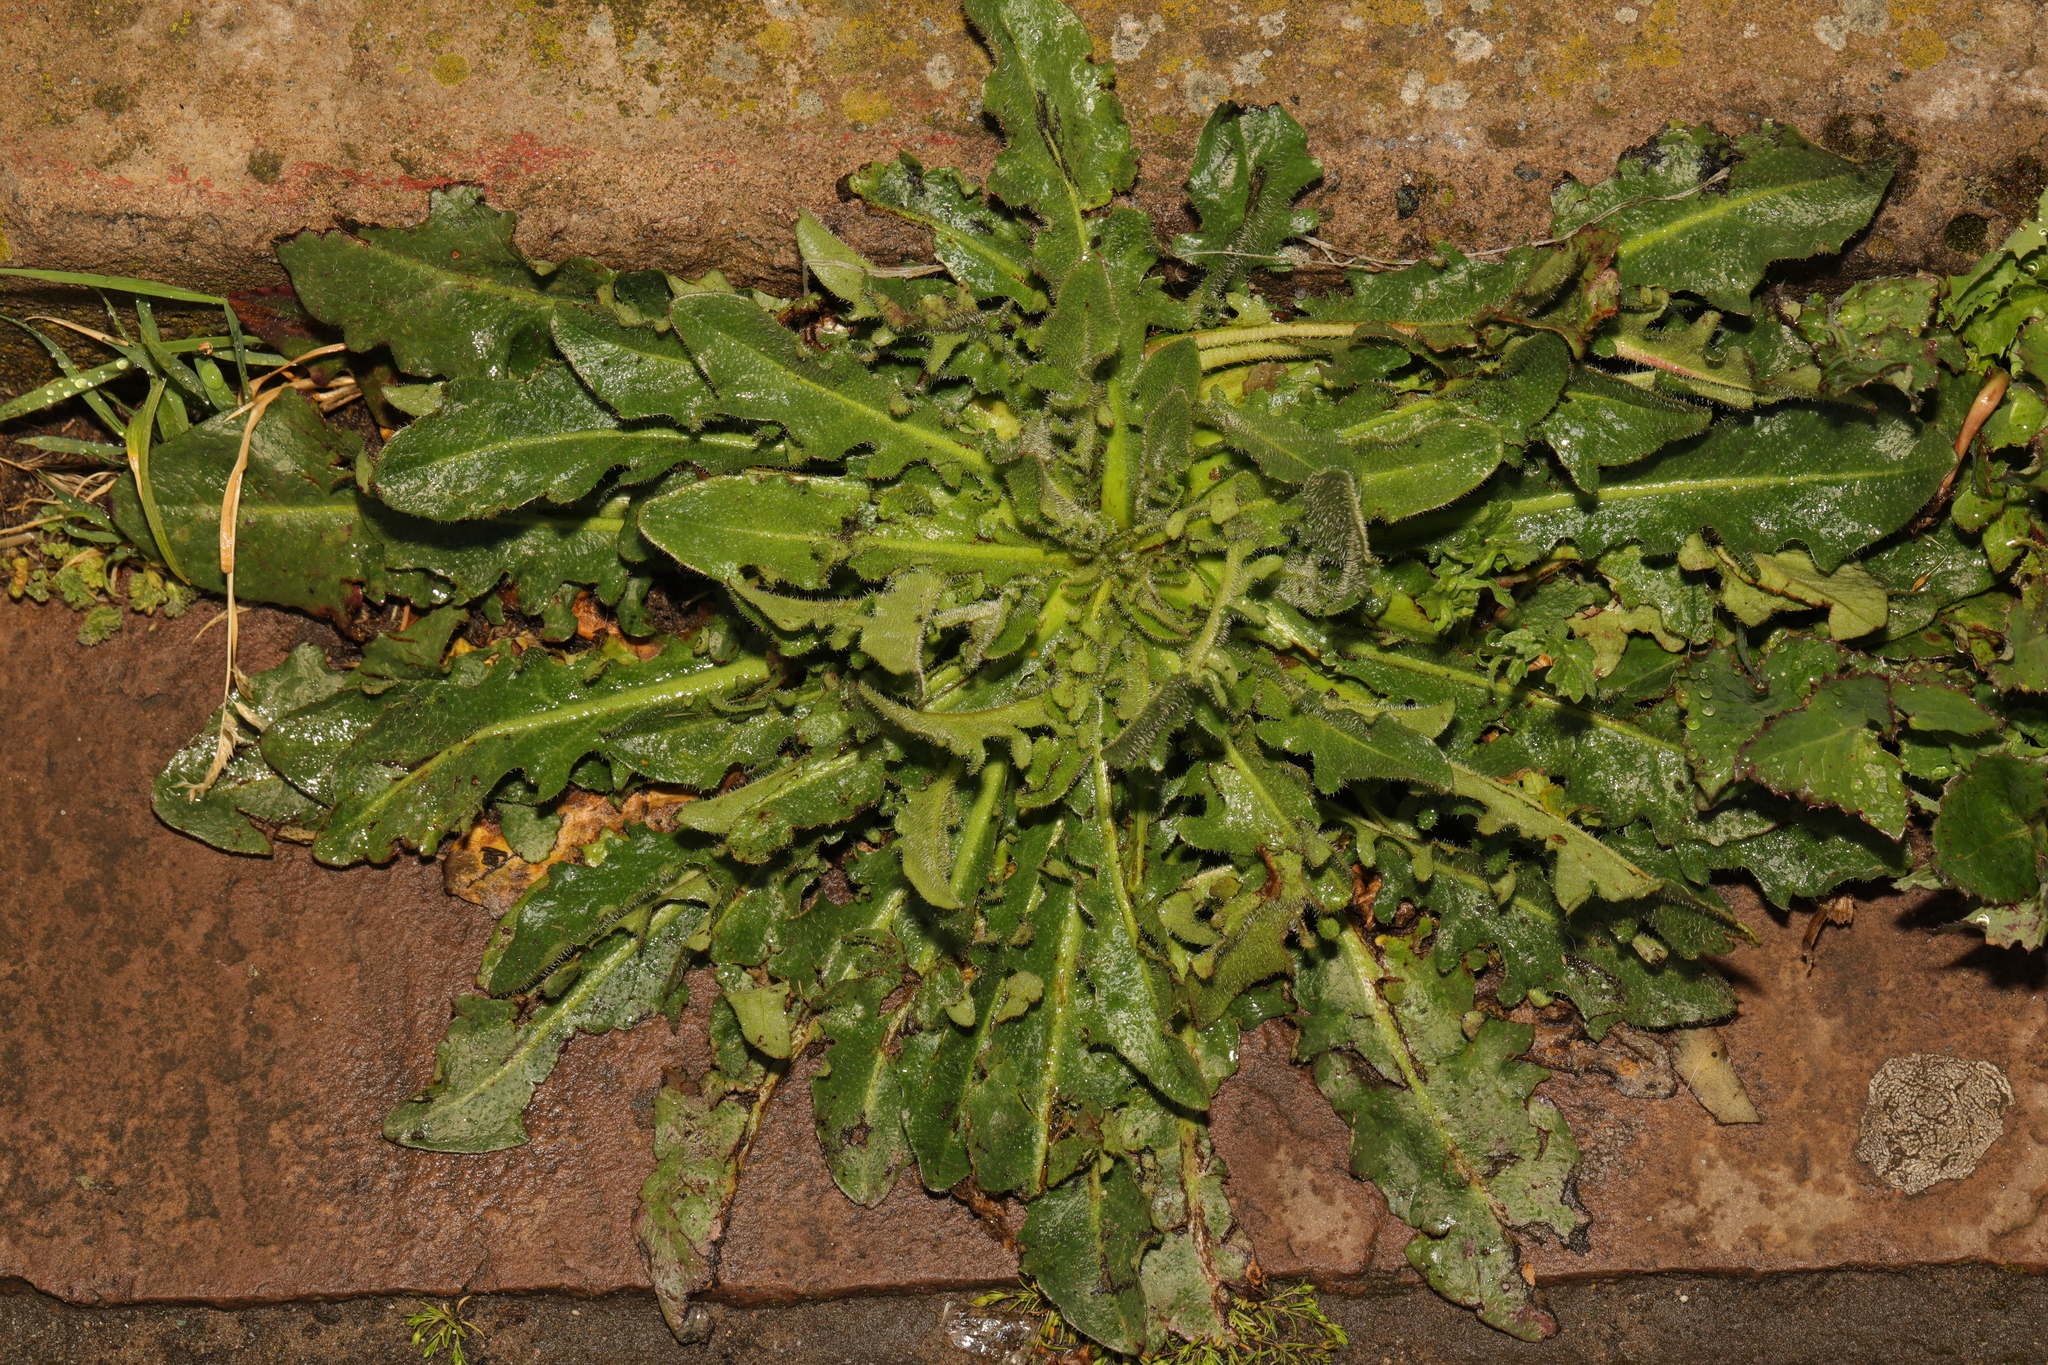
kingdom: Plantae
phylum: Tracheophyta
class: Magnoliopsida
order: Asterales
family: Asteraceae
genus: Hypochaeris
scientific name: Hypochaeris radicata
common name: Flatweed
